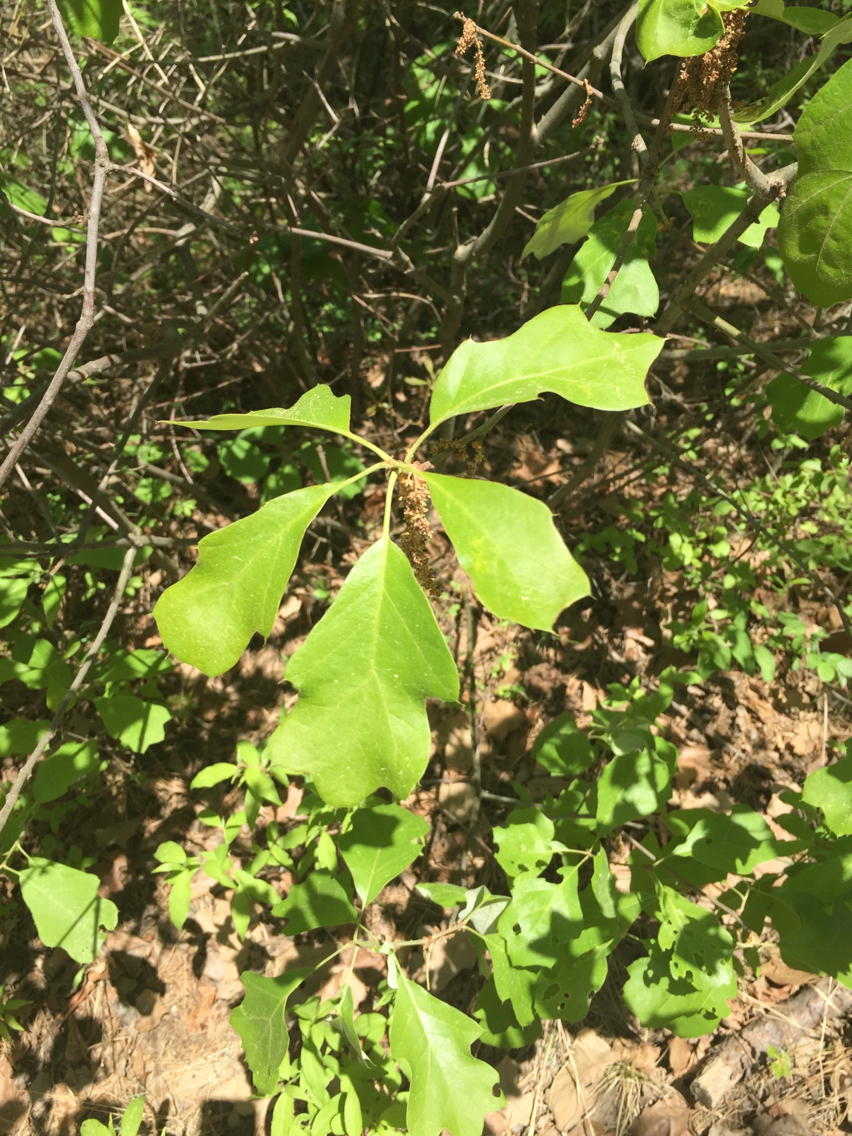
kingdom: Plantae
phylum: Tracheophyta
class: Magnoliopsida
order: Fagales
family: Fagaceae
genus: Quercus
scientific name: Quercus ilicifolia
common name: Bear oak
